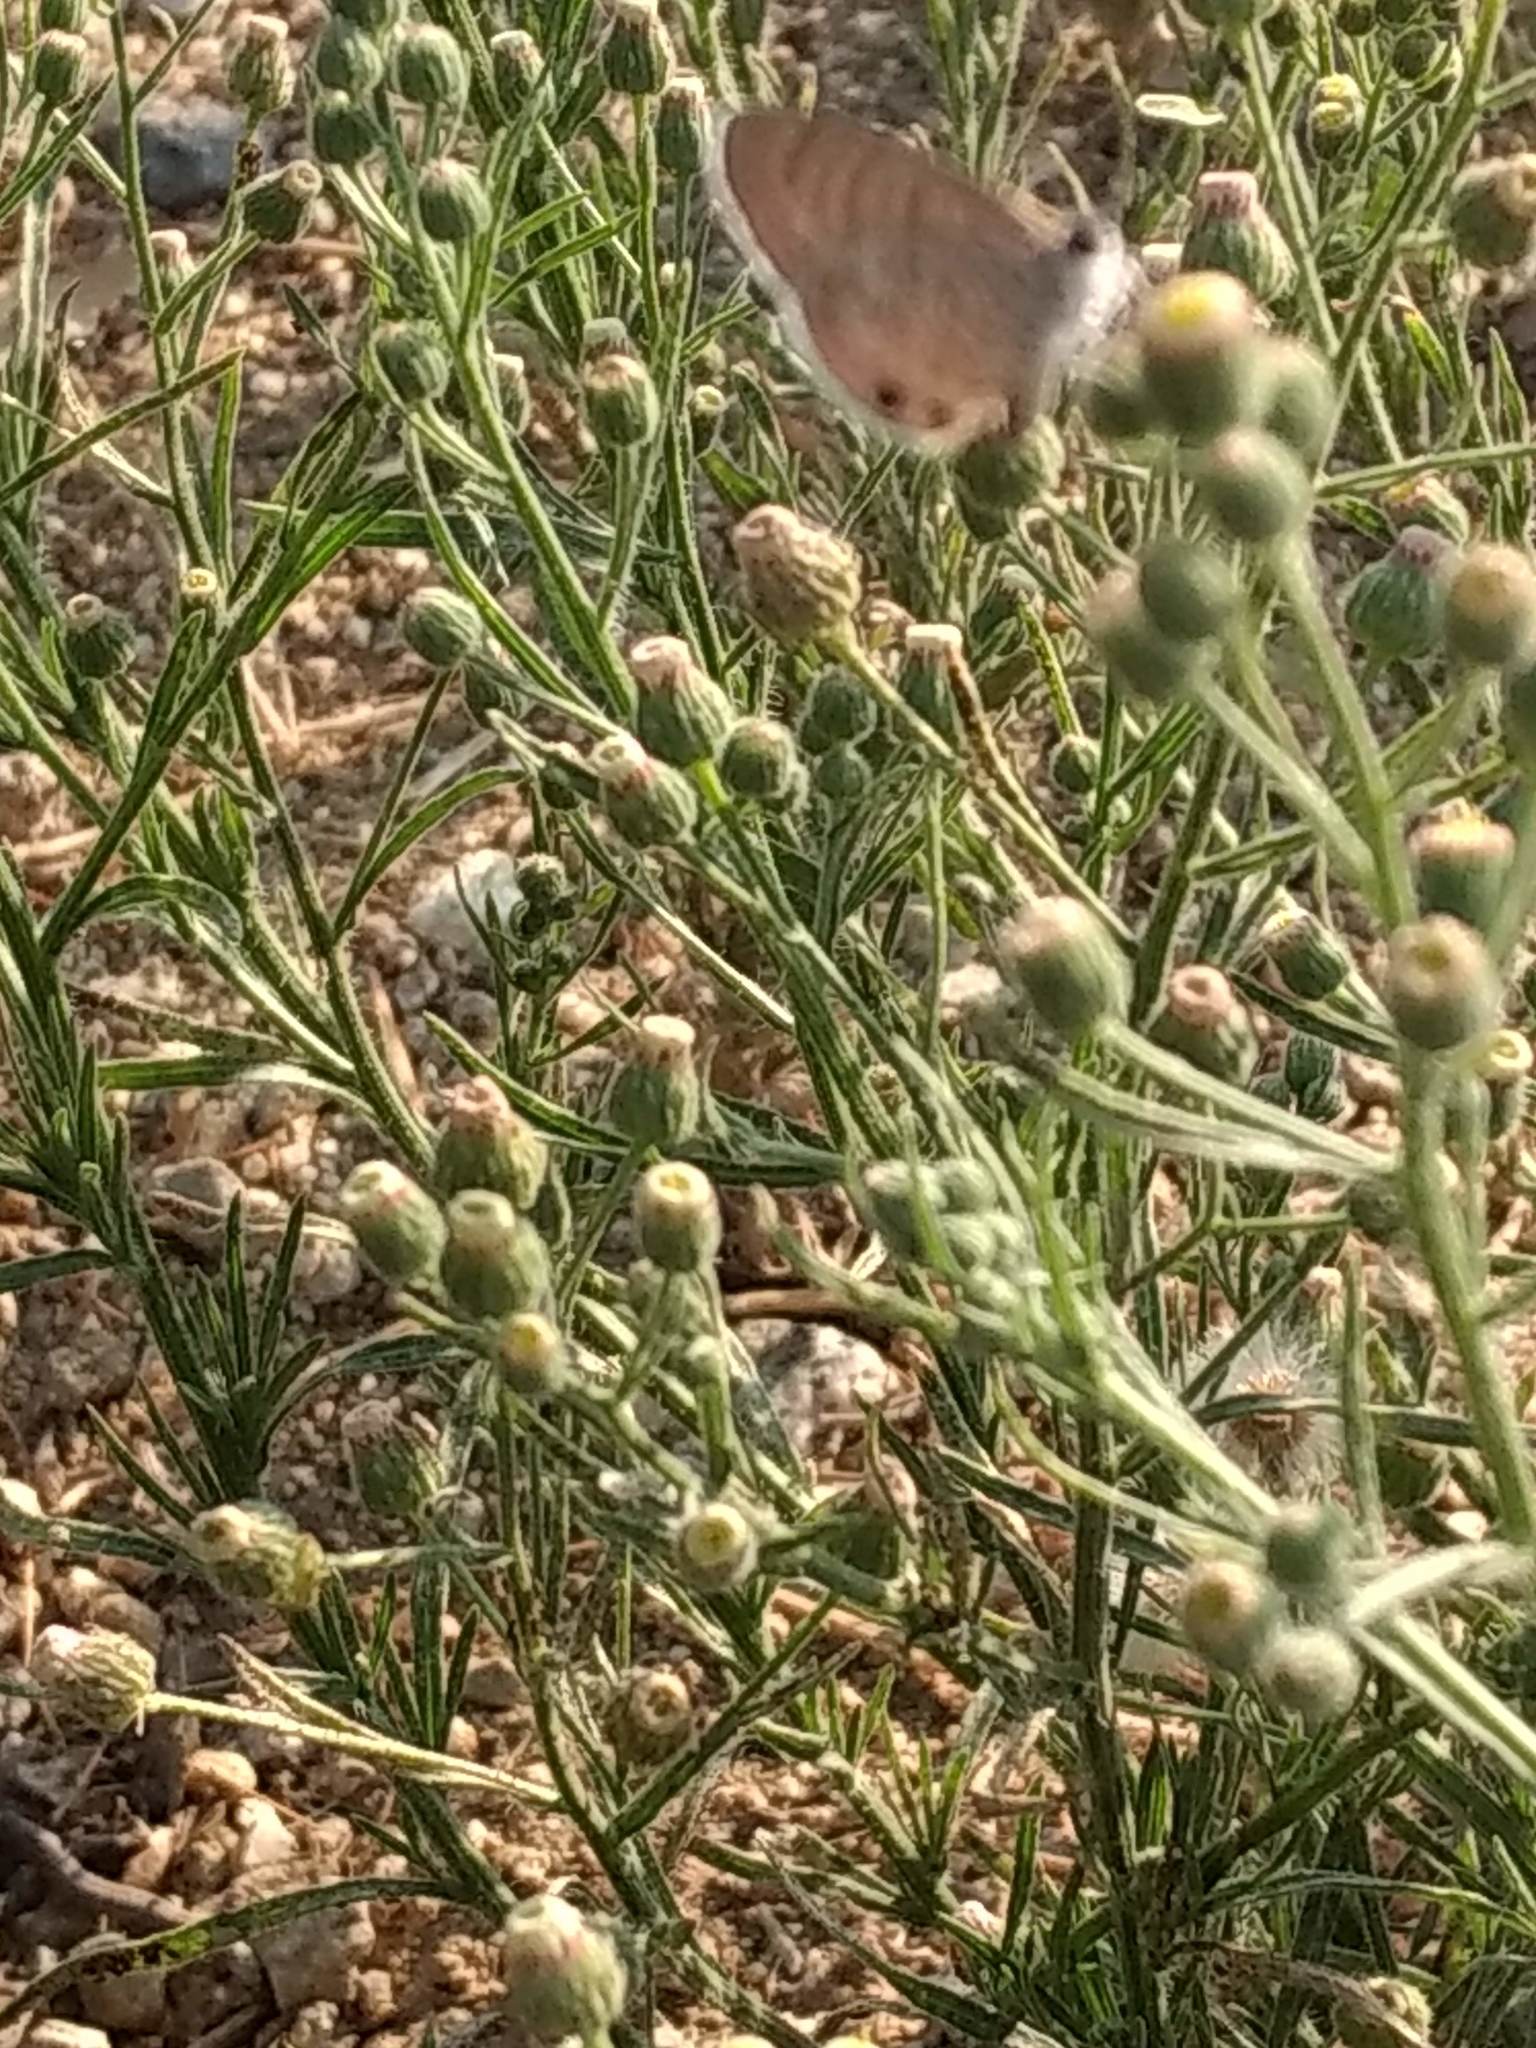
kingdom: Animalia
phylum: Arthropoda
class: Insecta
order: Lepidoptera
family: Lycaenidae
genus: Leptotes
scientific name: Leptotes marina
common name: Marine blue
